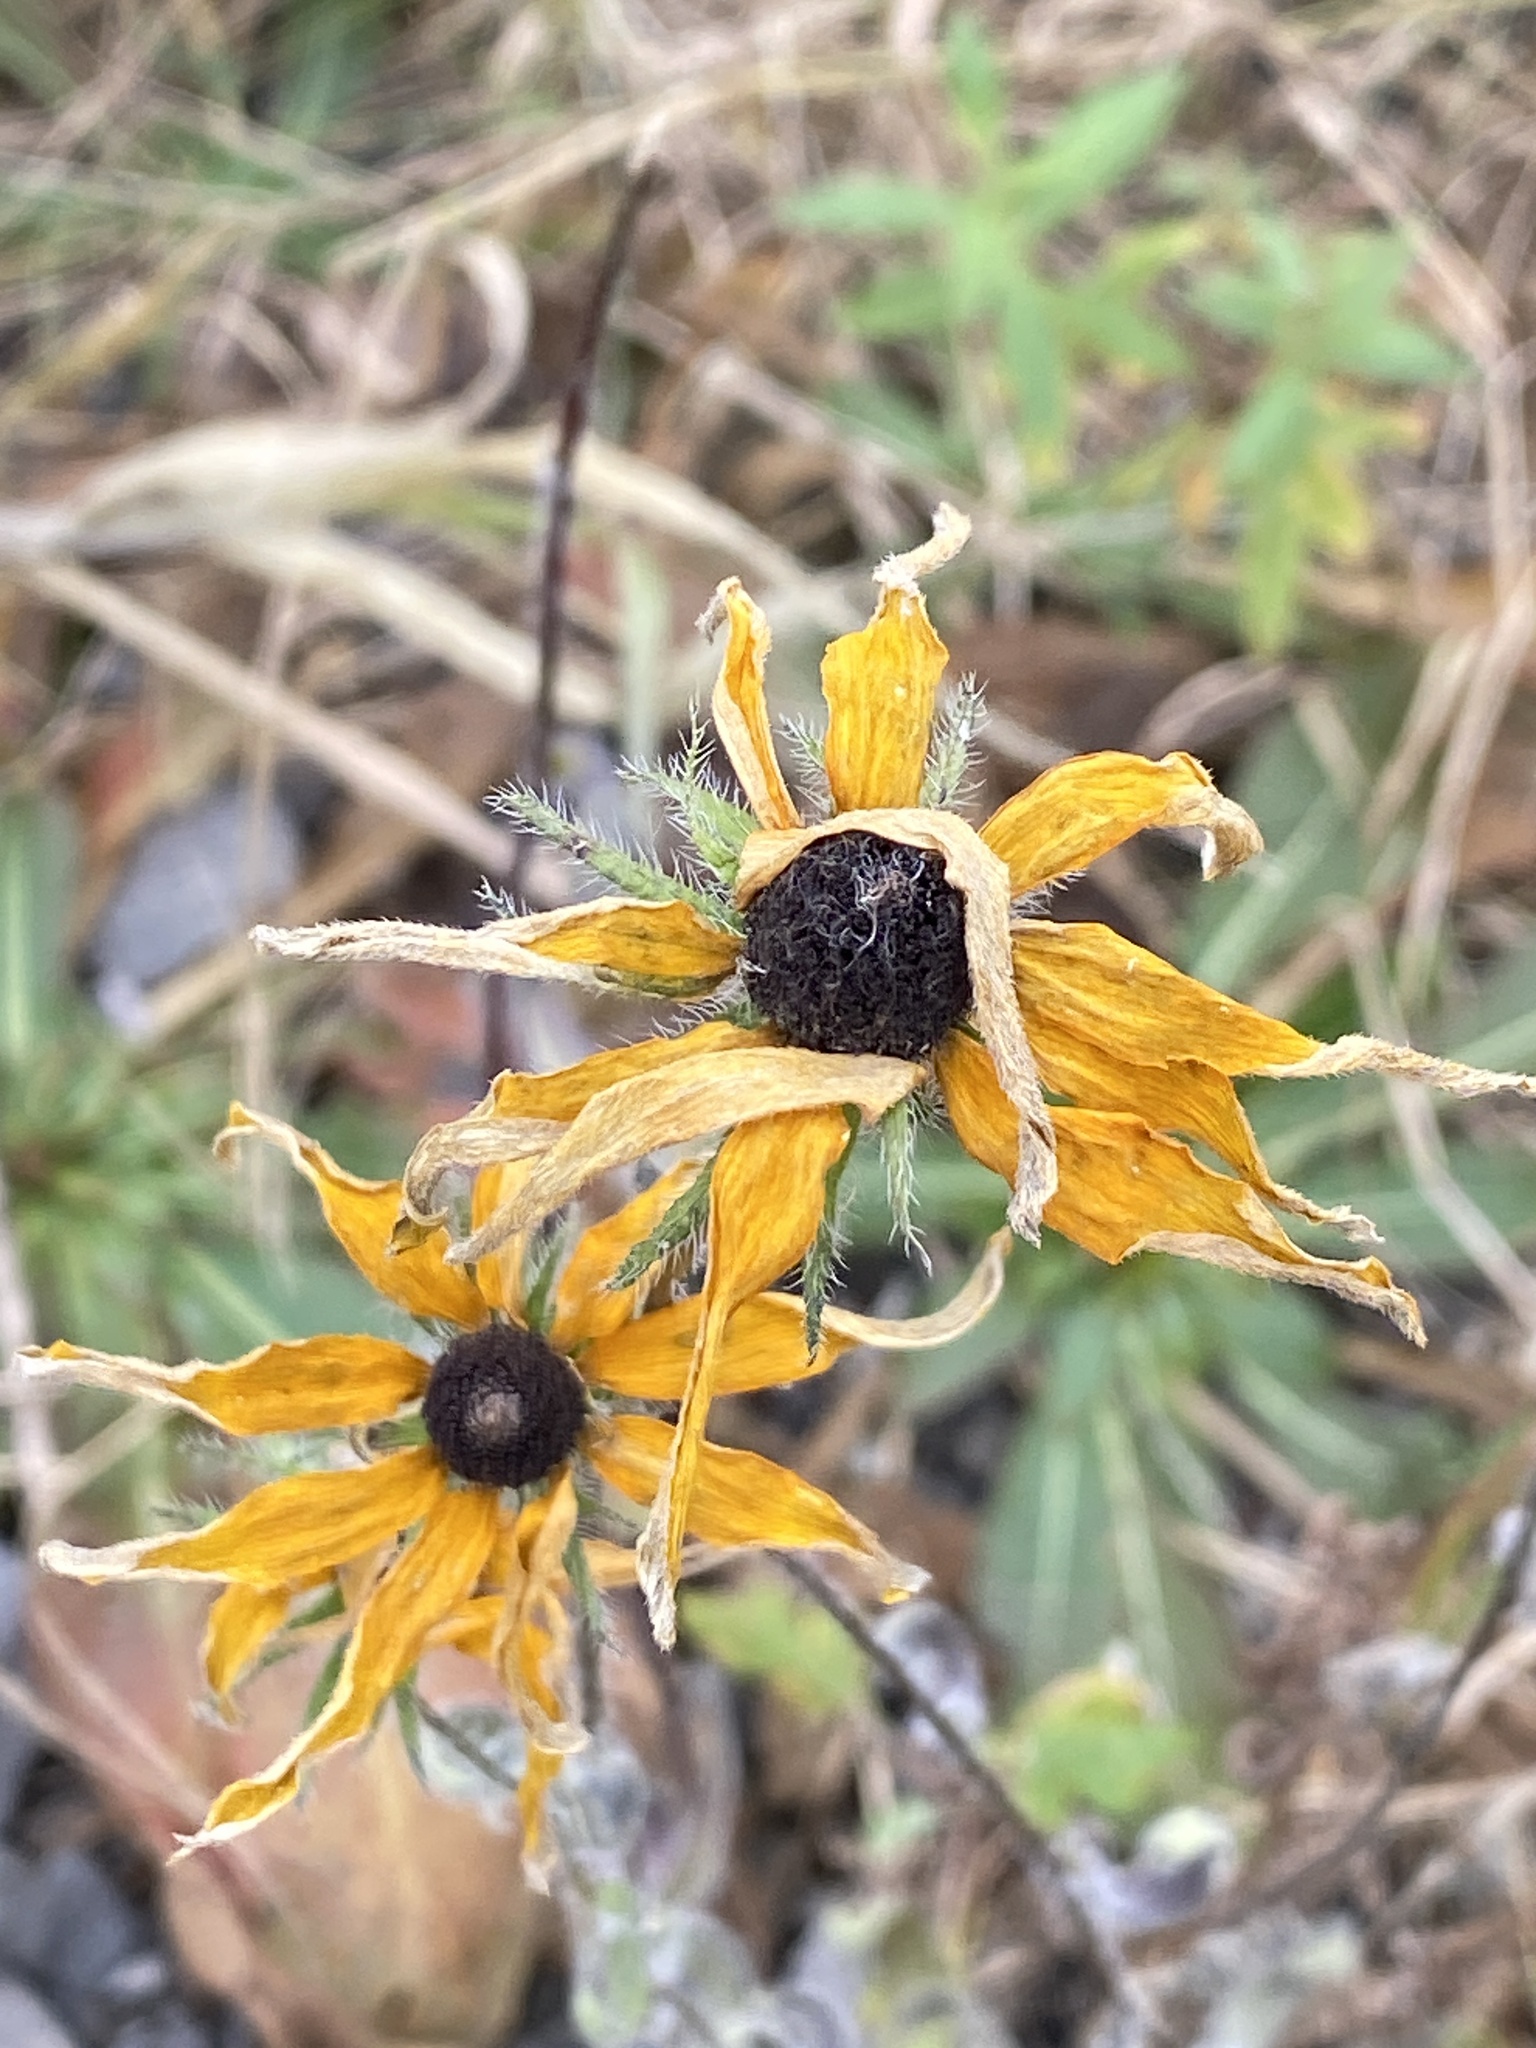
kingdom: Plantae
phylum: Tracheophyta
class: Magnoliopsida
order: Asterales
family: Asteraceae
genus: Rudbeckia
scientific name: Rudbeckia hirta
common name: Black-eyed-susan
